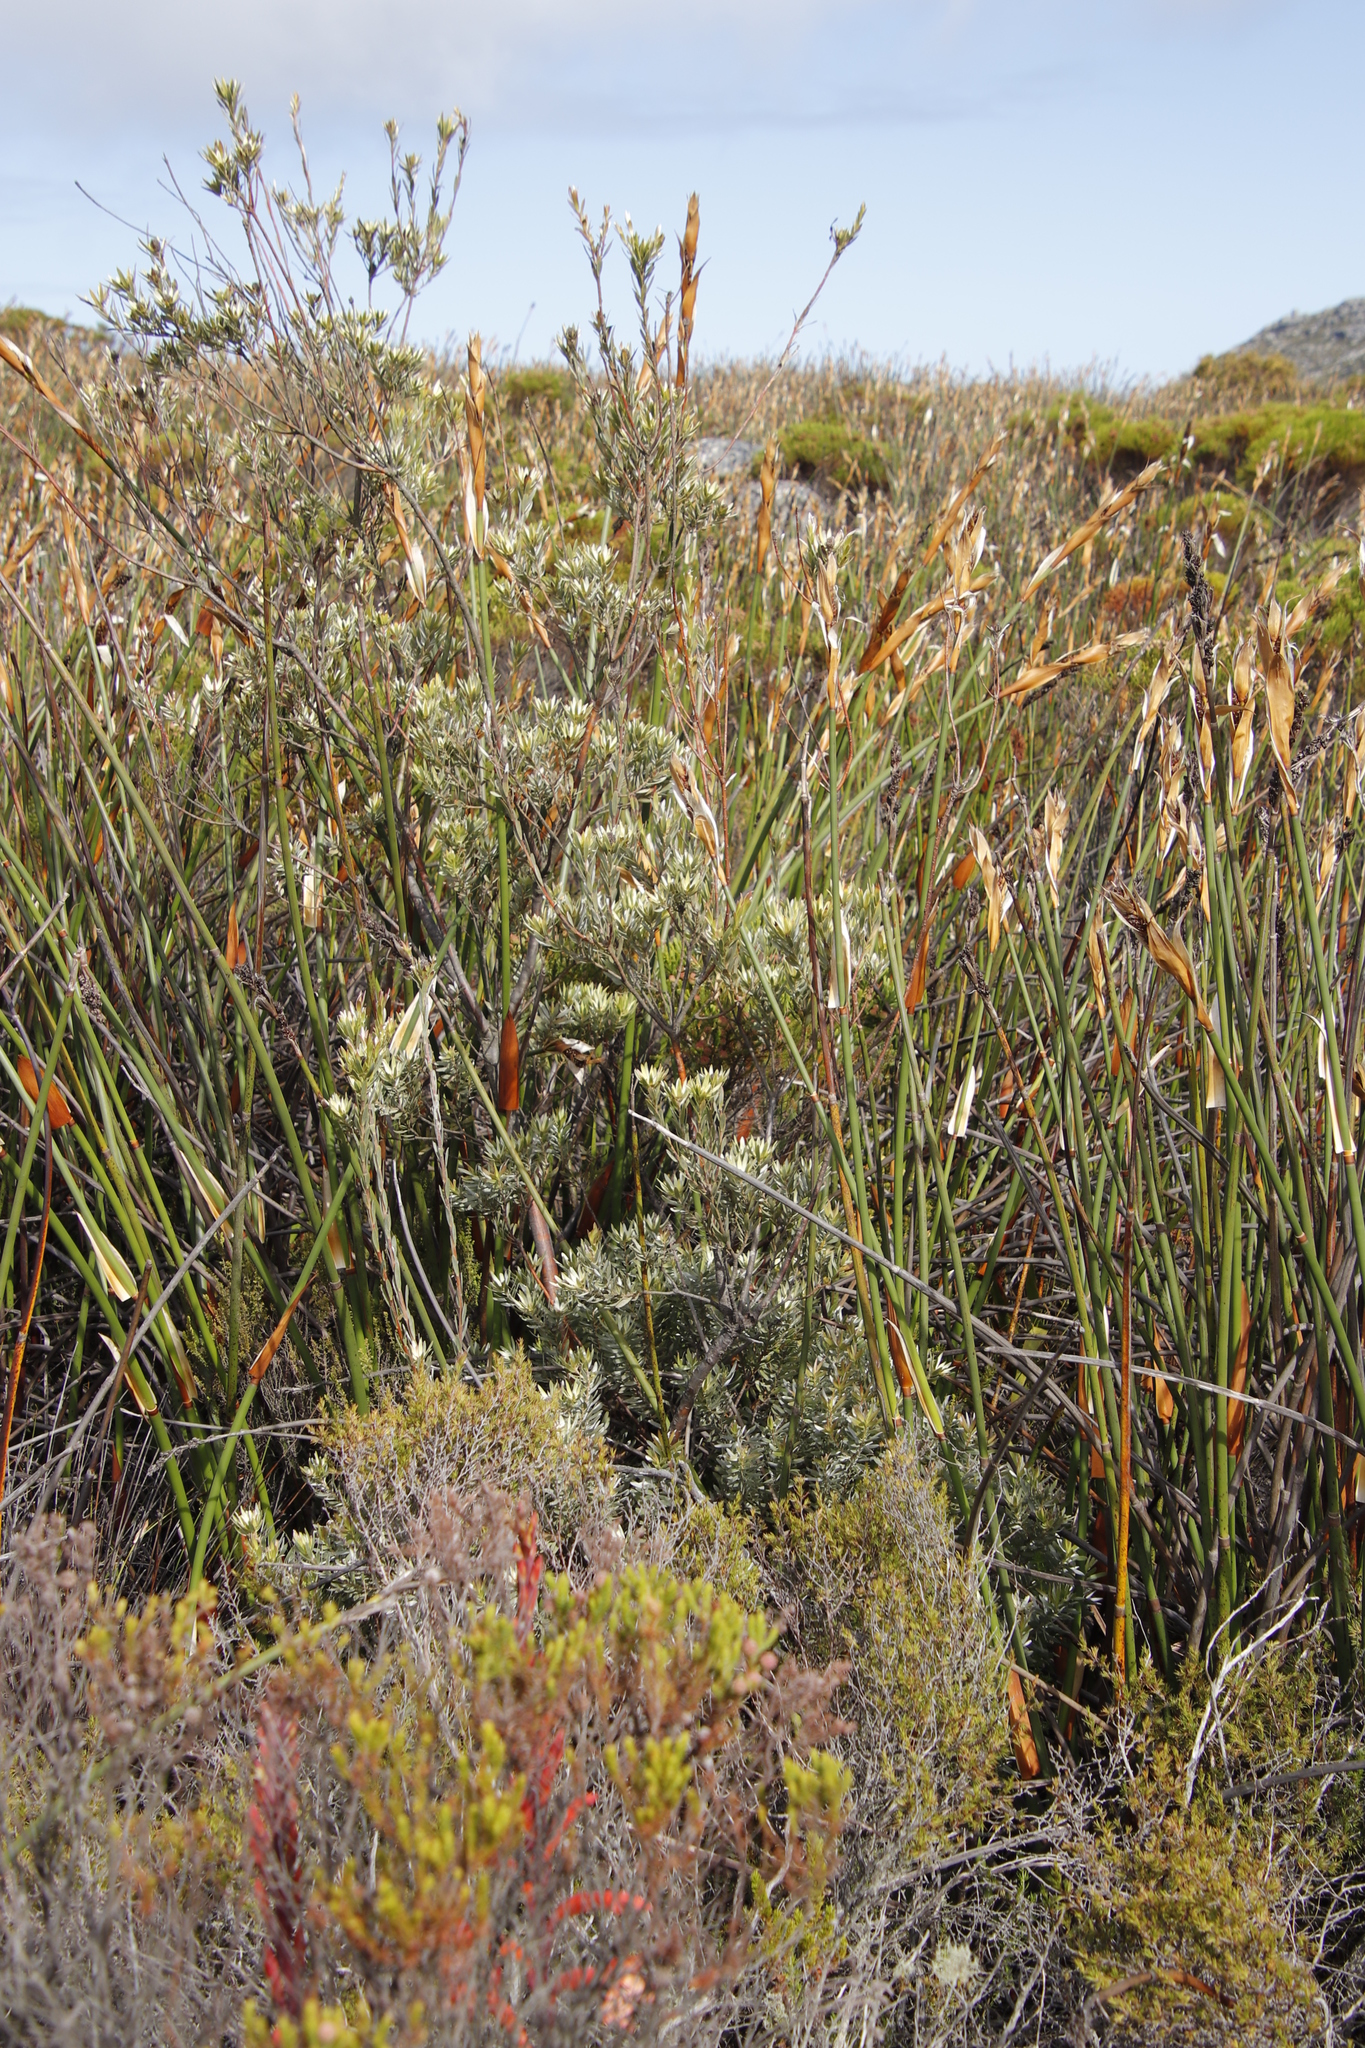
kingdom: Plantae
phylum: Tracheophyta
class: Magnoliopsida
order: Proteales
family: Proteaceae
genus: Leucadendron
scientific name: Leucadendron uliginosum
